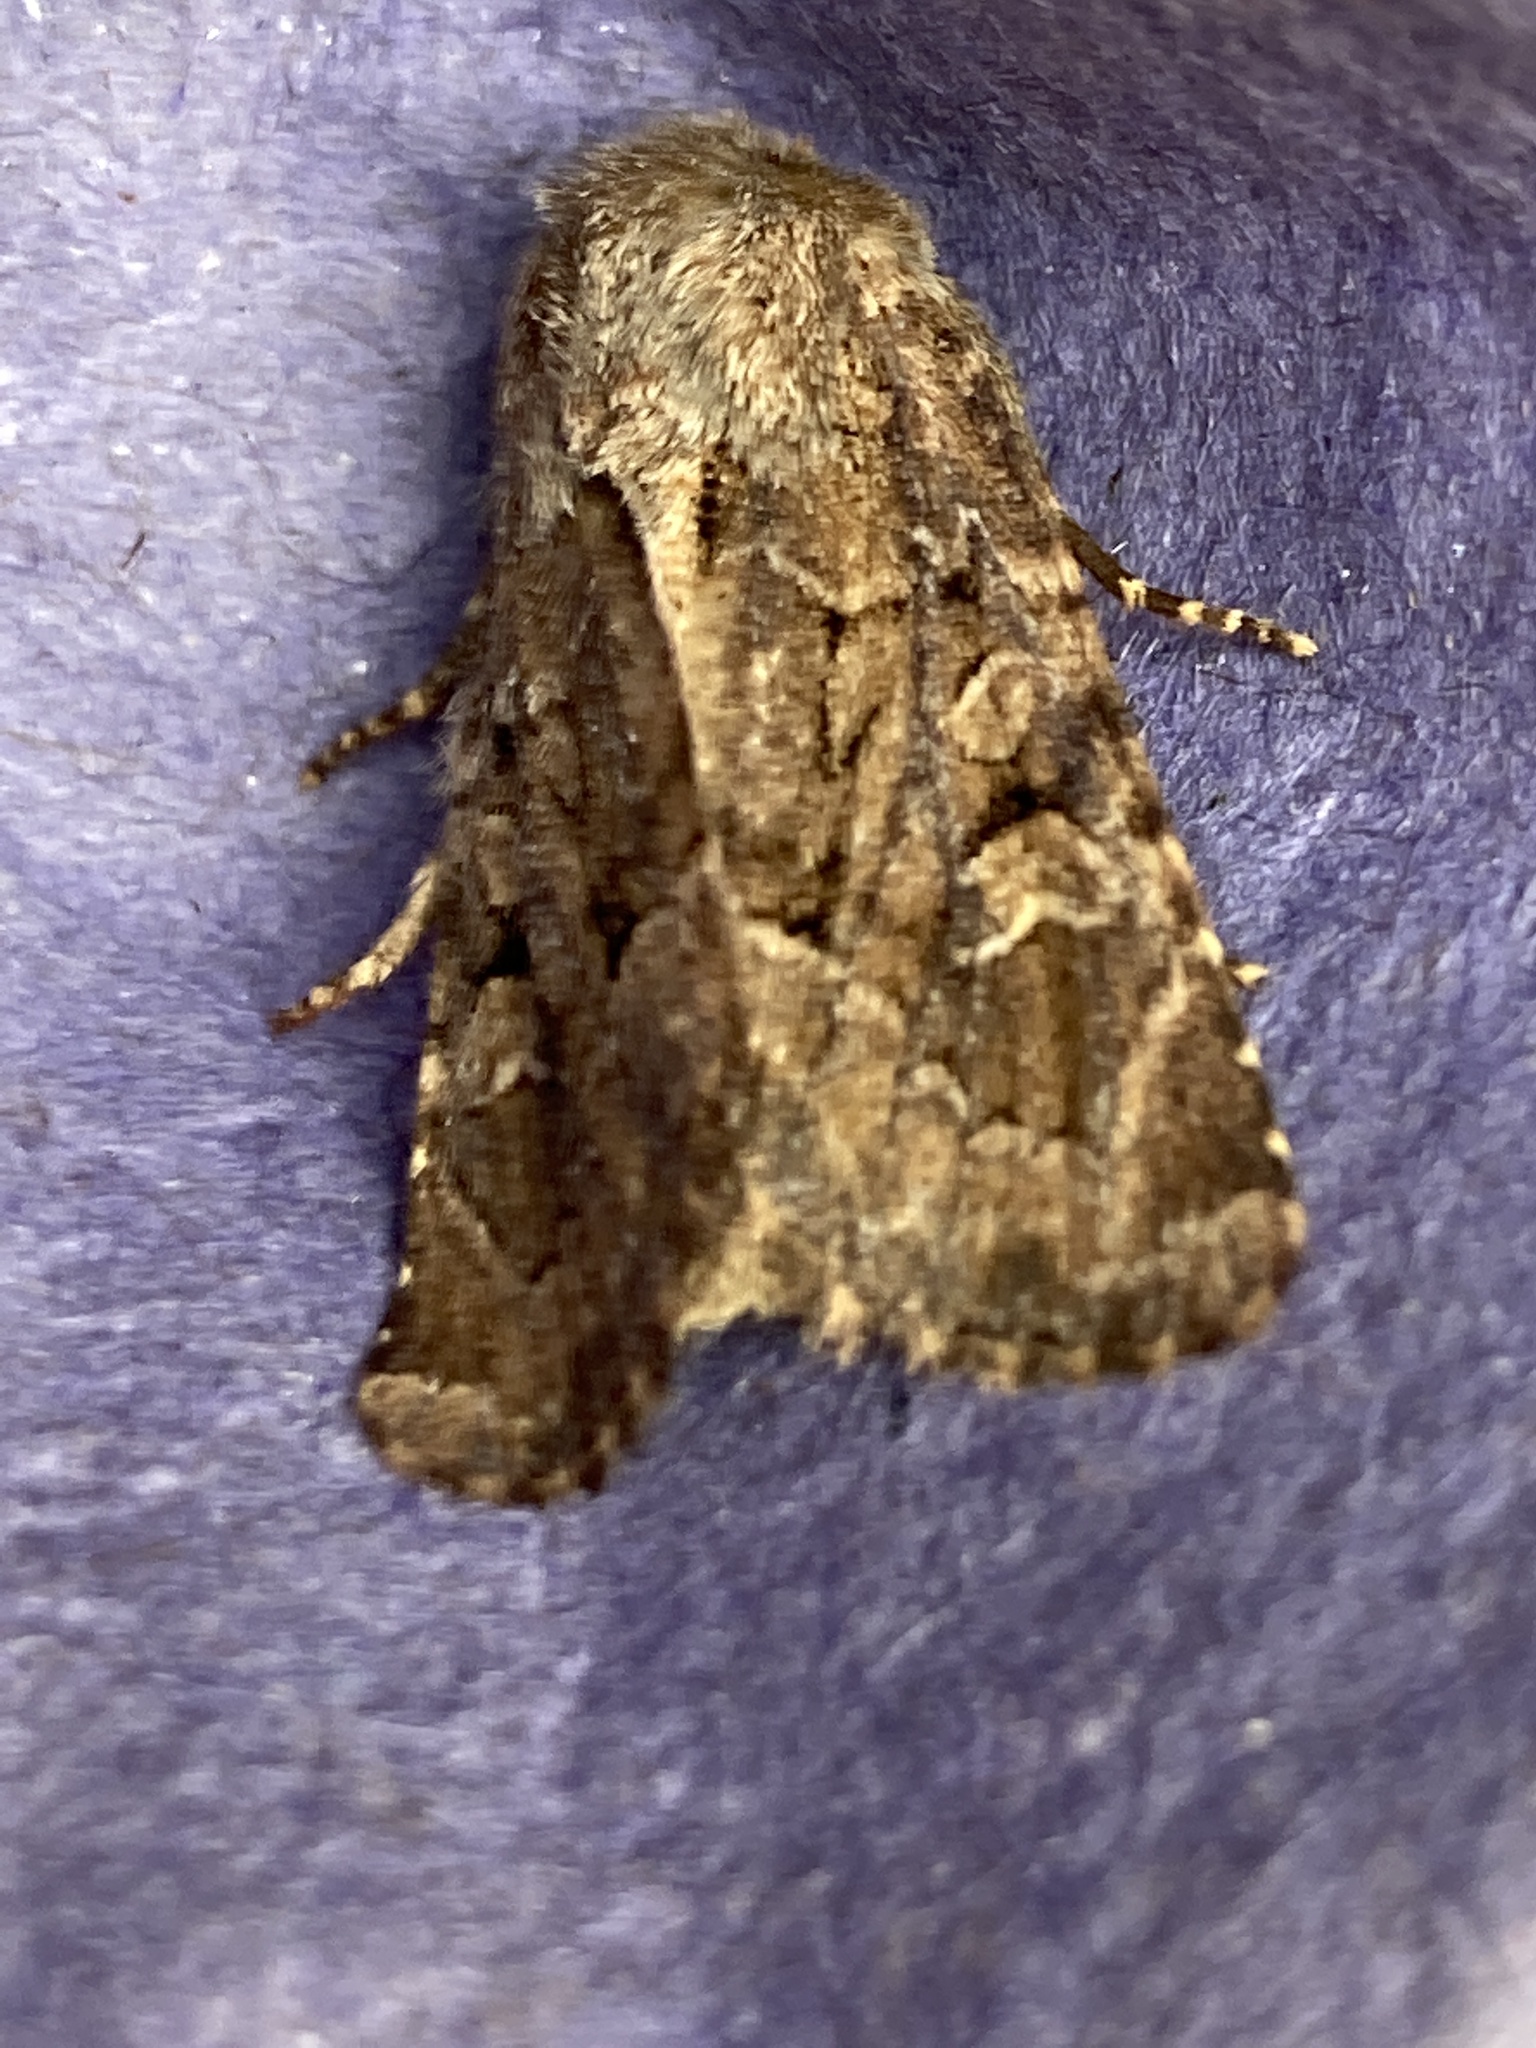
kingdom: Animalia
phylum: Arthropoda
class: Insecta
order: Lepidoptera
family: Noctuidae
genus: Luperina
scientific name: Luperina testacea
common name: Flounced rustic
